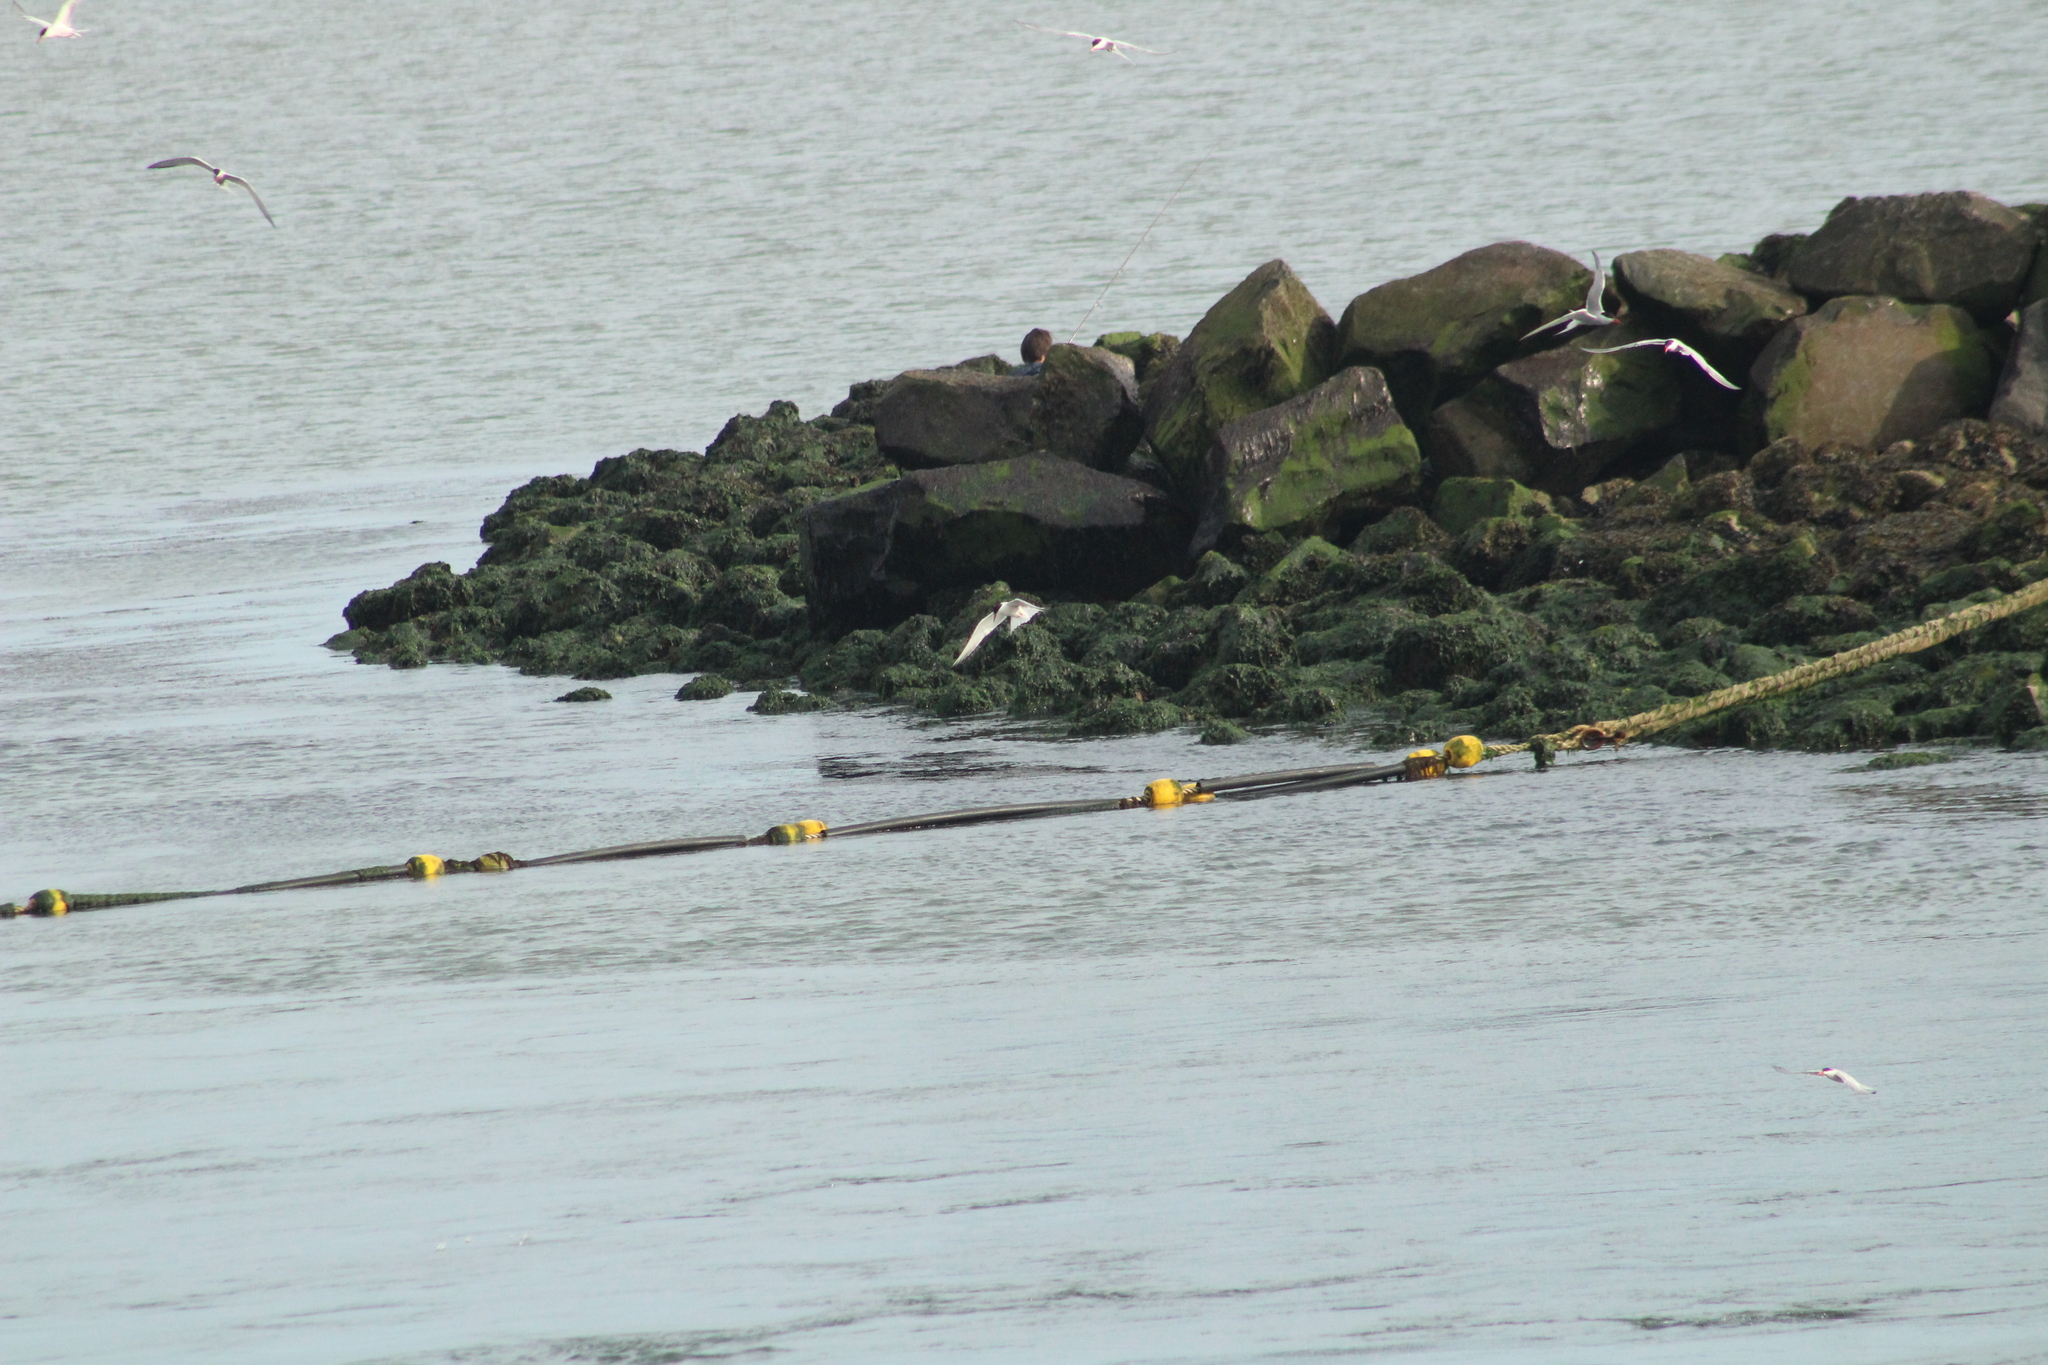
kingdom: Animalia
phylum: Chordata
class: Aves
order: Charadriiformes
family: Laridae
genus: Sterna
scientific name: Sterna hirundo
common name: Common tern
